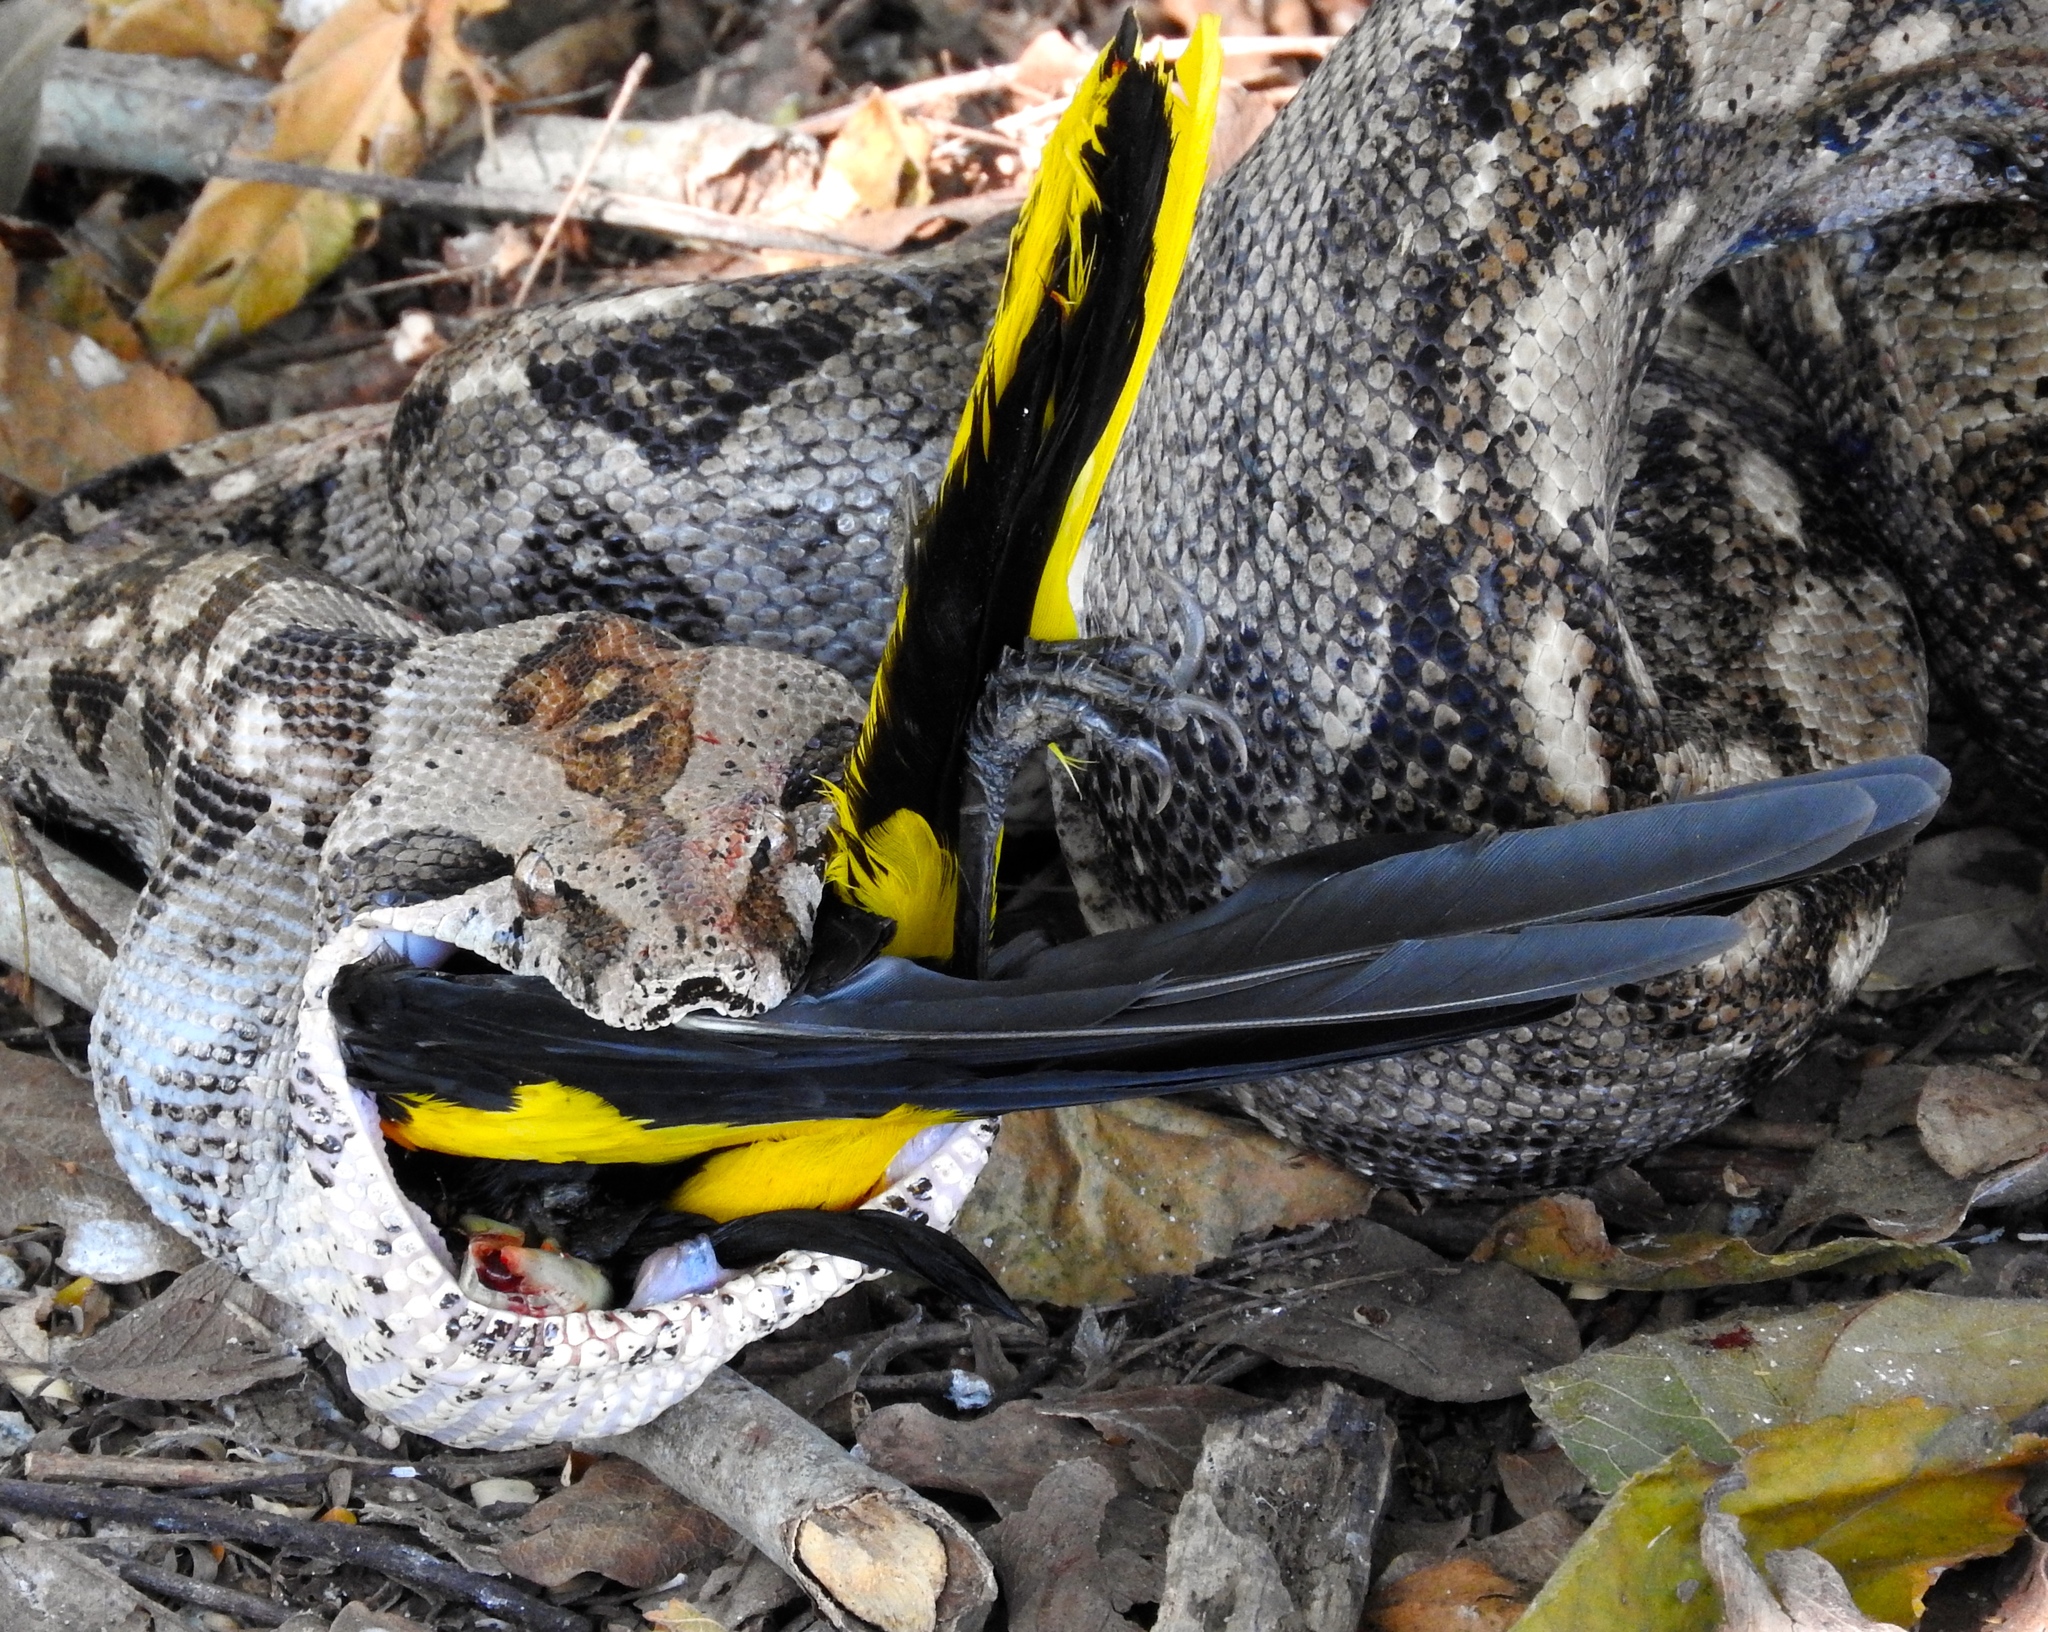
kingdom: Animalia
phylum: Chordata
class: Squamata
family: Boidae
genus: Boa
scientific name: Boa
